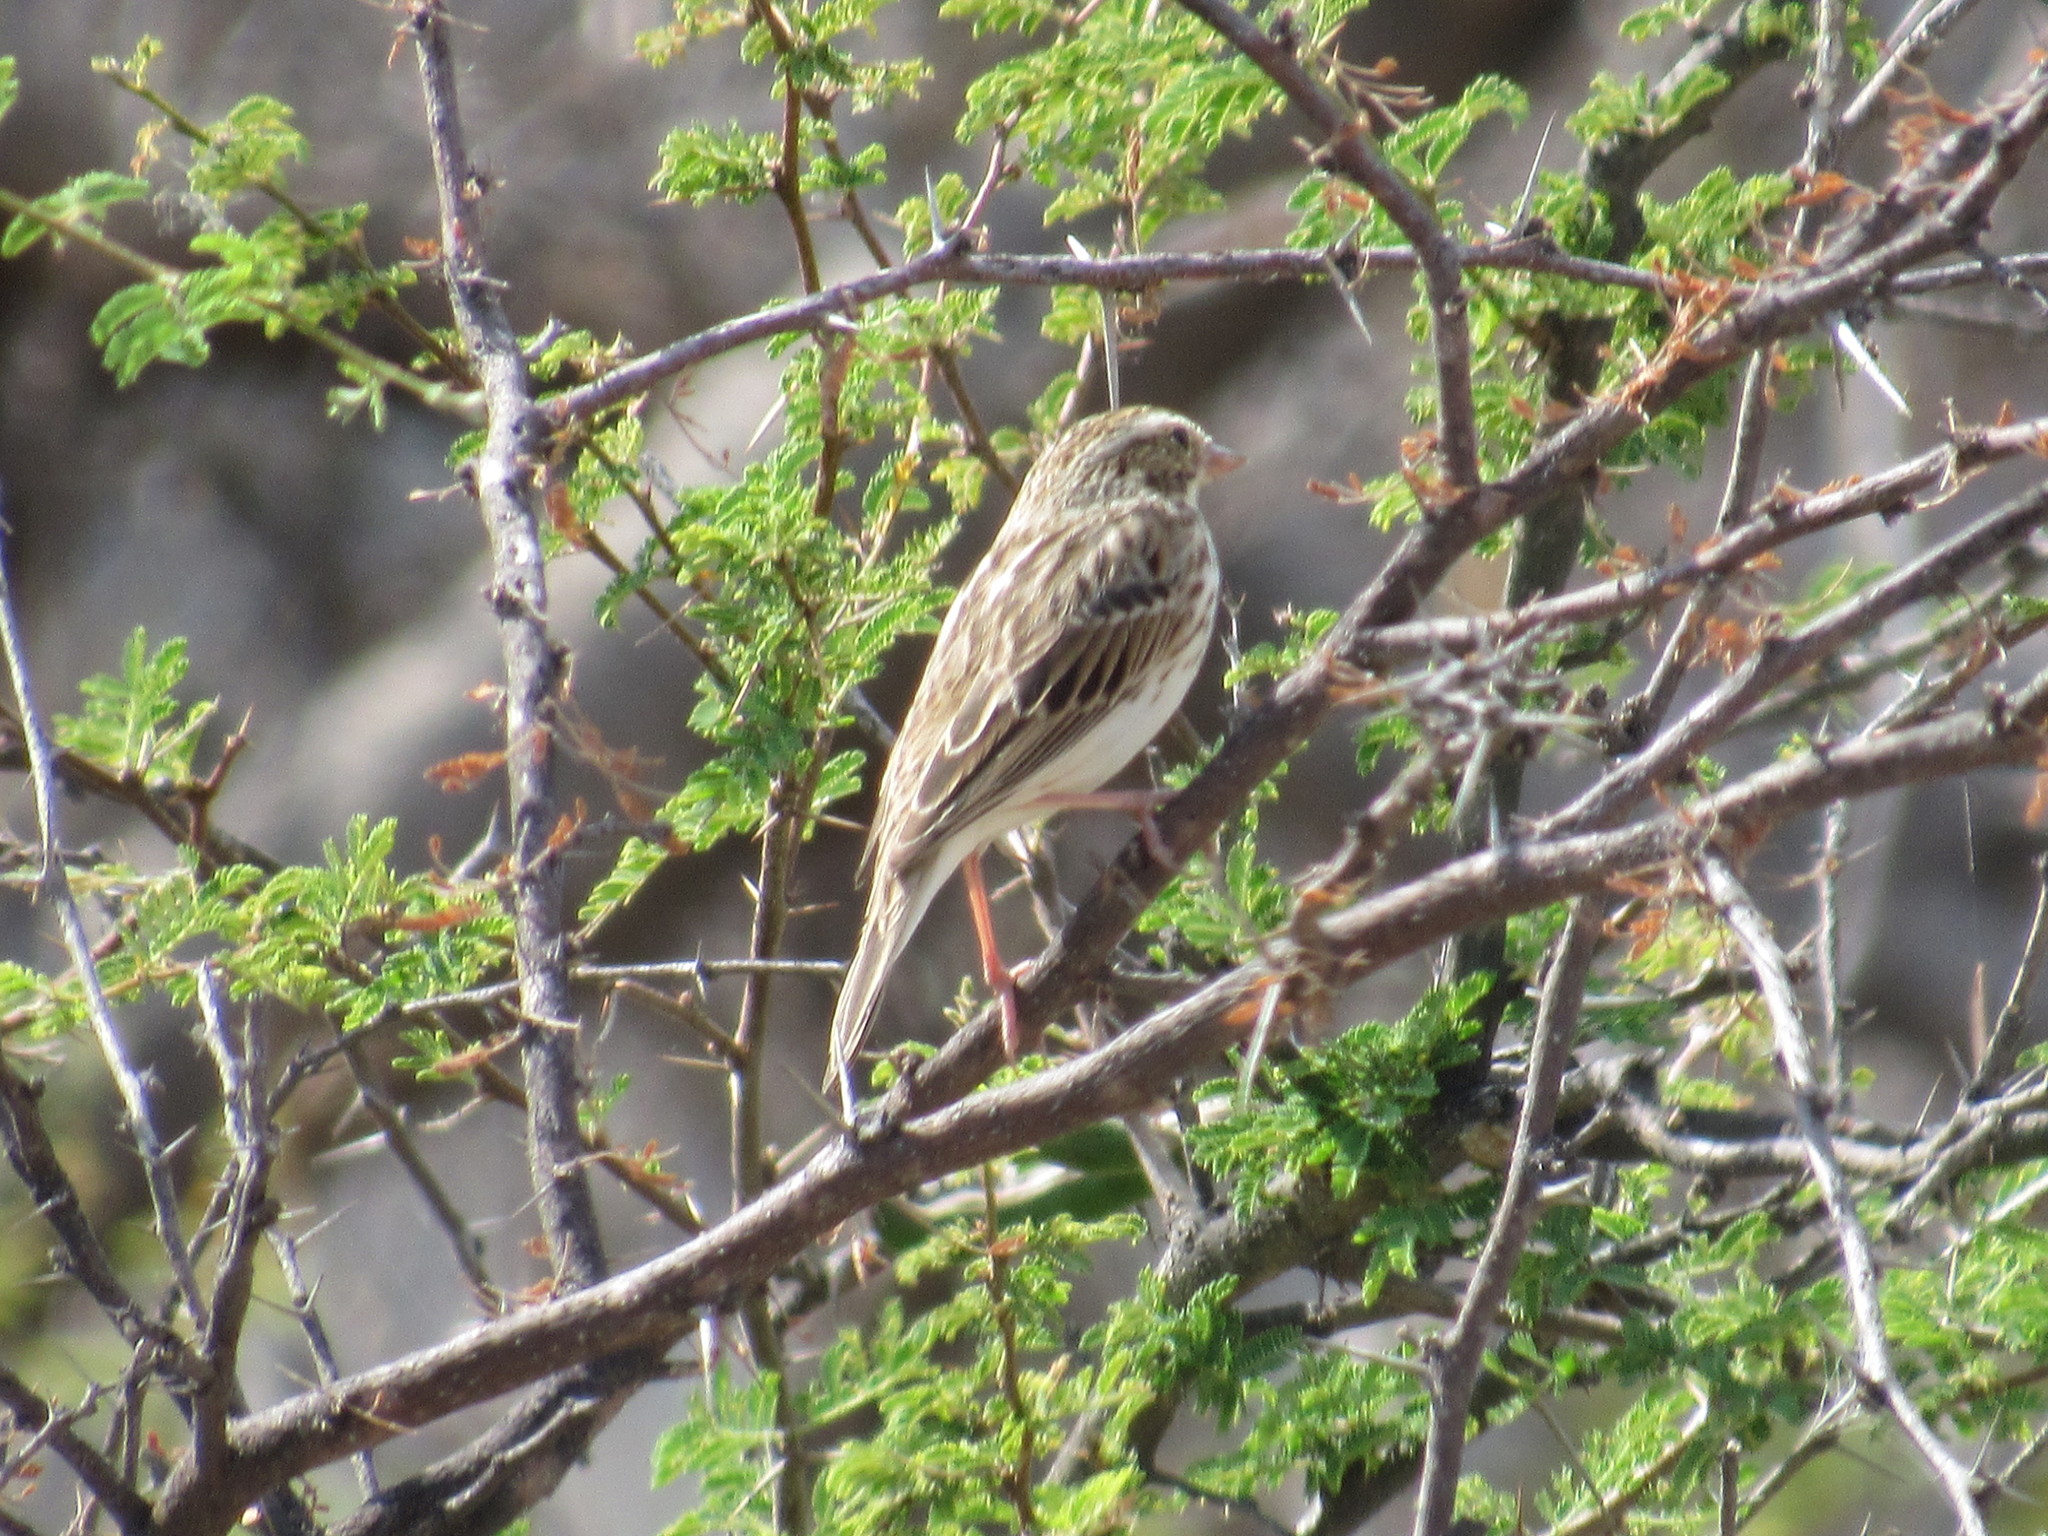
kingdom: Animalia
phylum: Chordata
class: Aves
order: Passeriformes
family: Passerellidae
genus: Passerculus
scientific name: Passerculus sandwichensis
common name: Savannah sparrow
